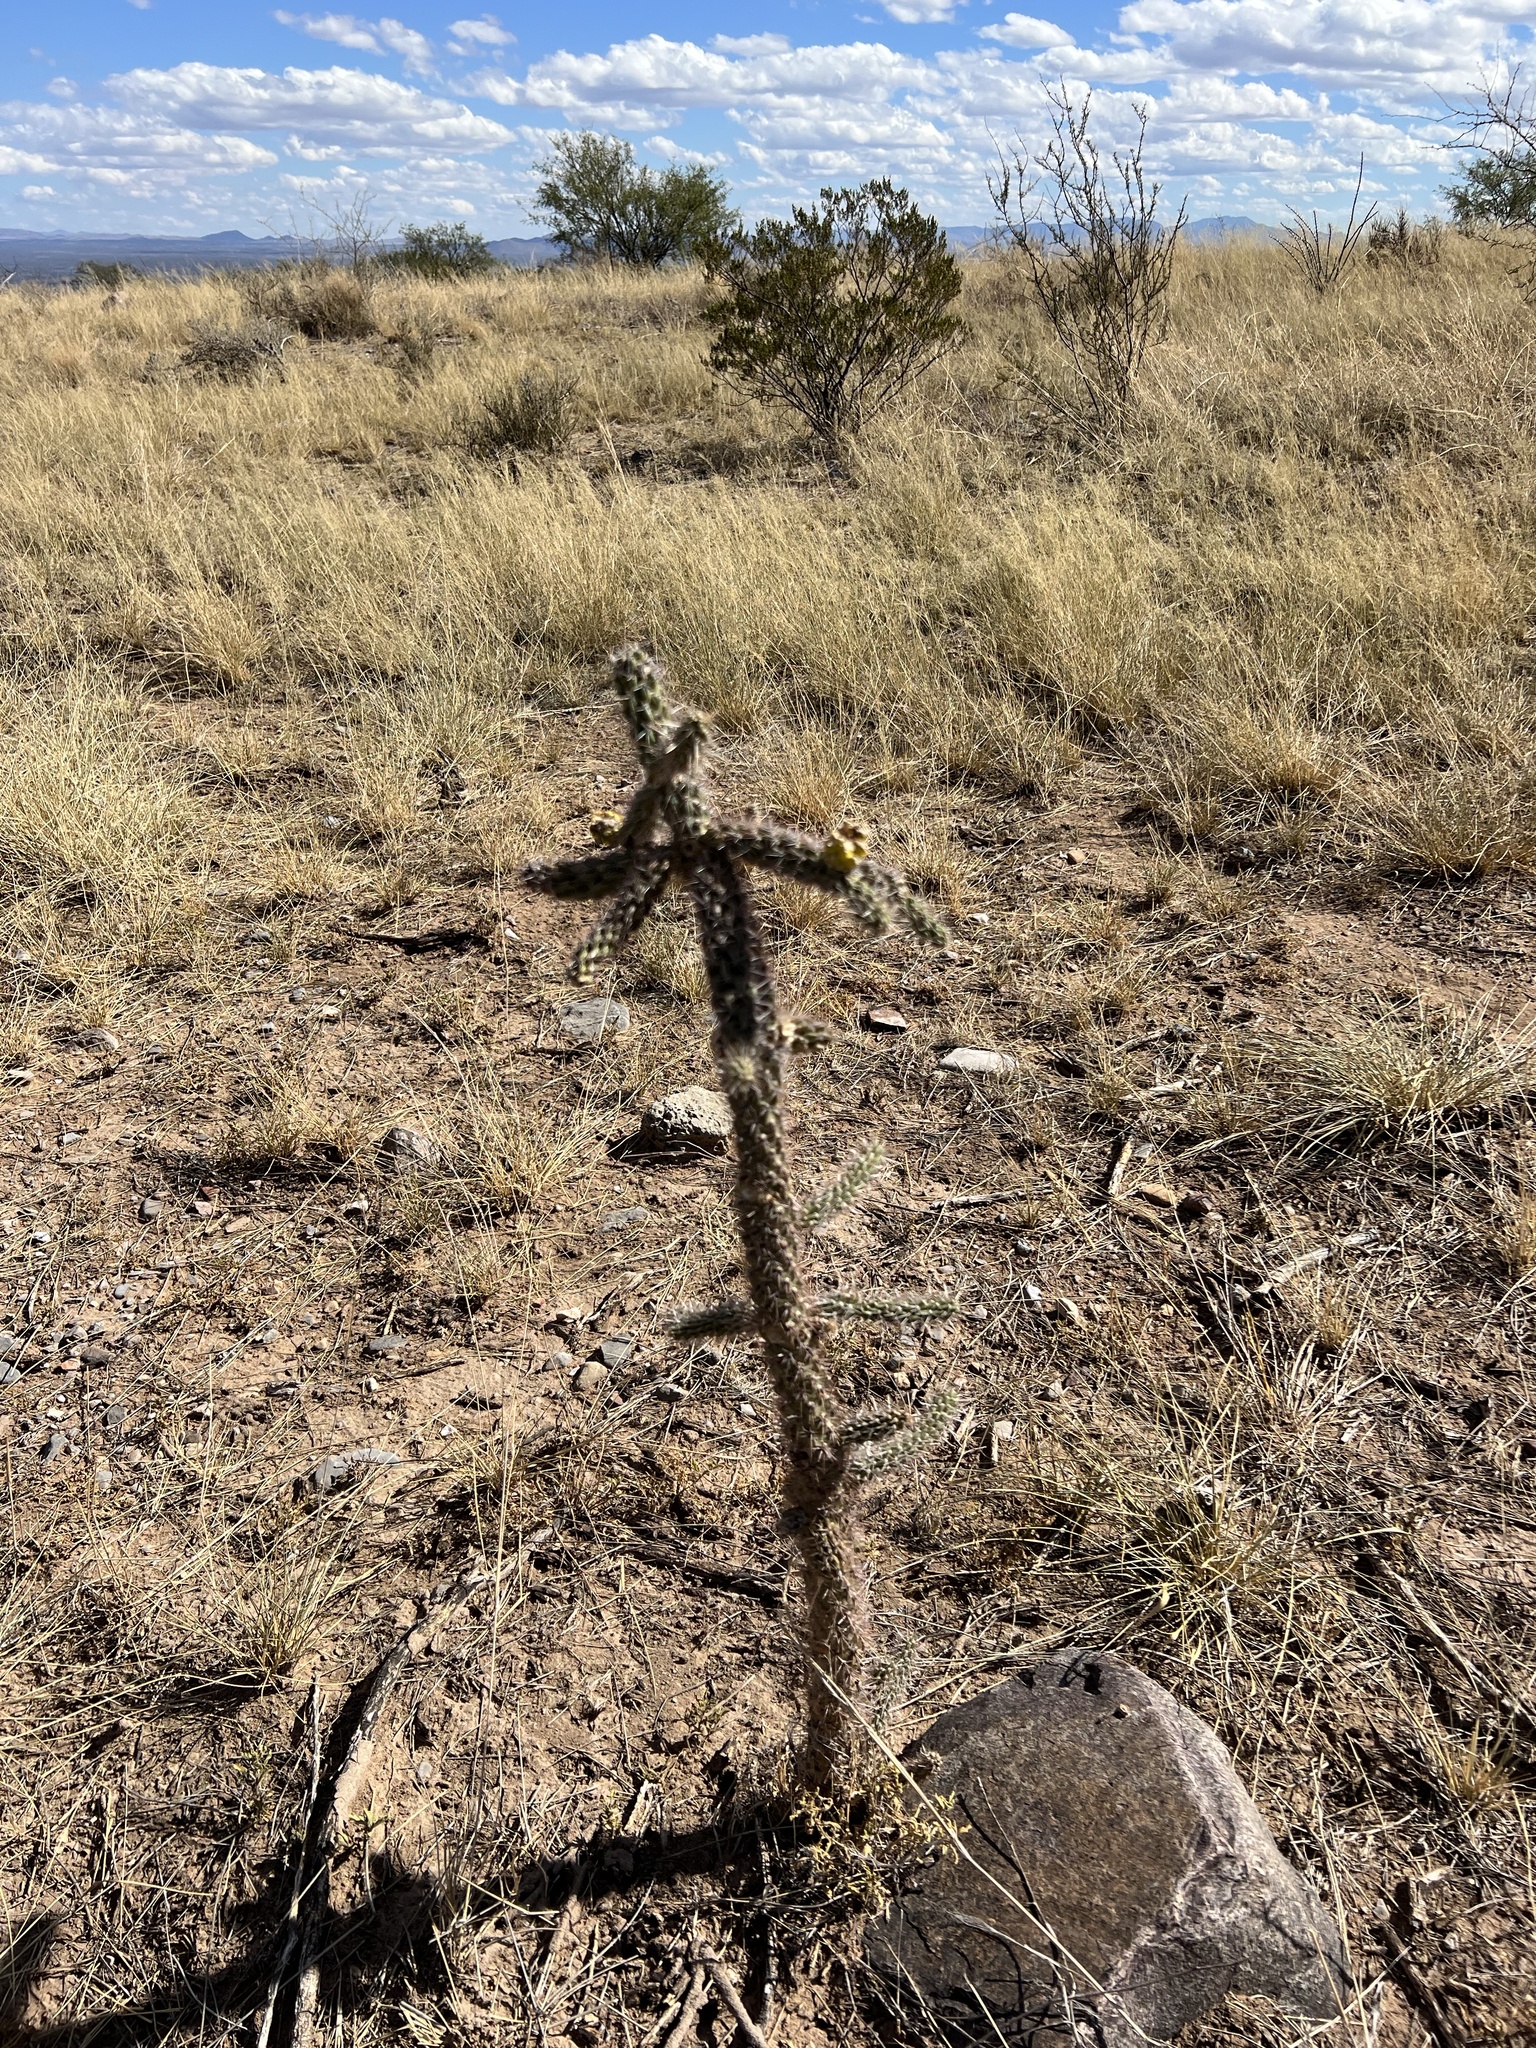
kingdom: Plantae
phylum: Tracheophyta
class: Magnoliopsida
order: Caryophyllales
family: Cactaceae
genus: Cylindropuntia
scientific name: Cylindropuntia imbricata
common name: Candelabrum cactus
